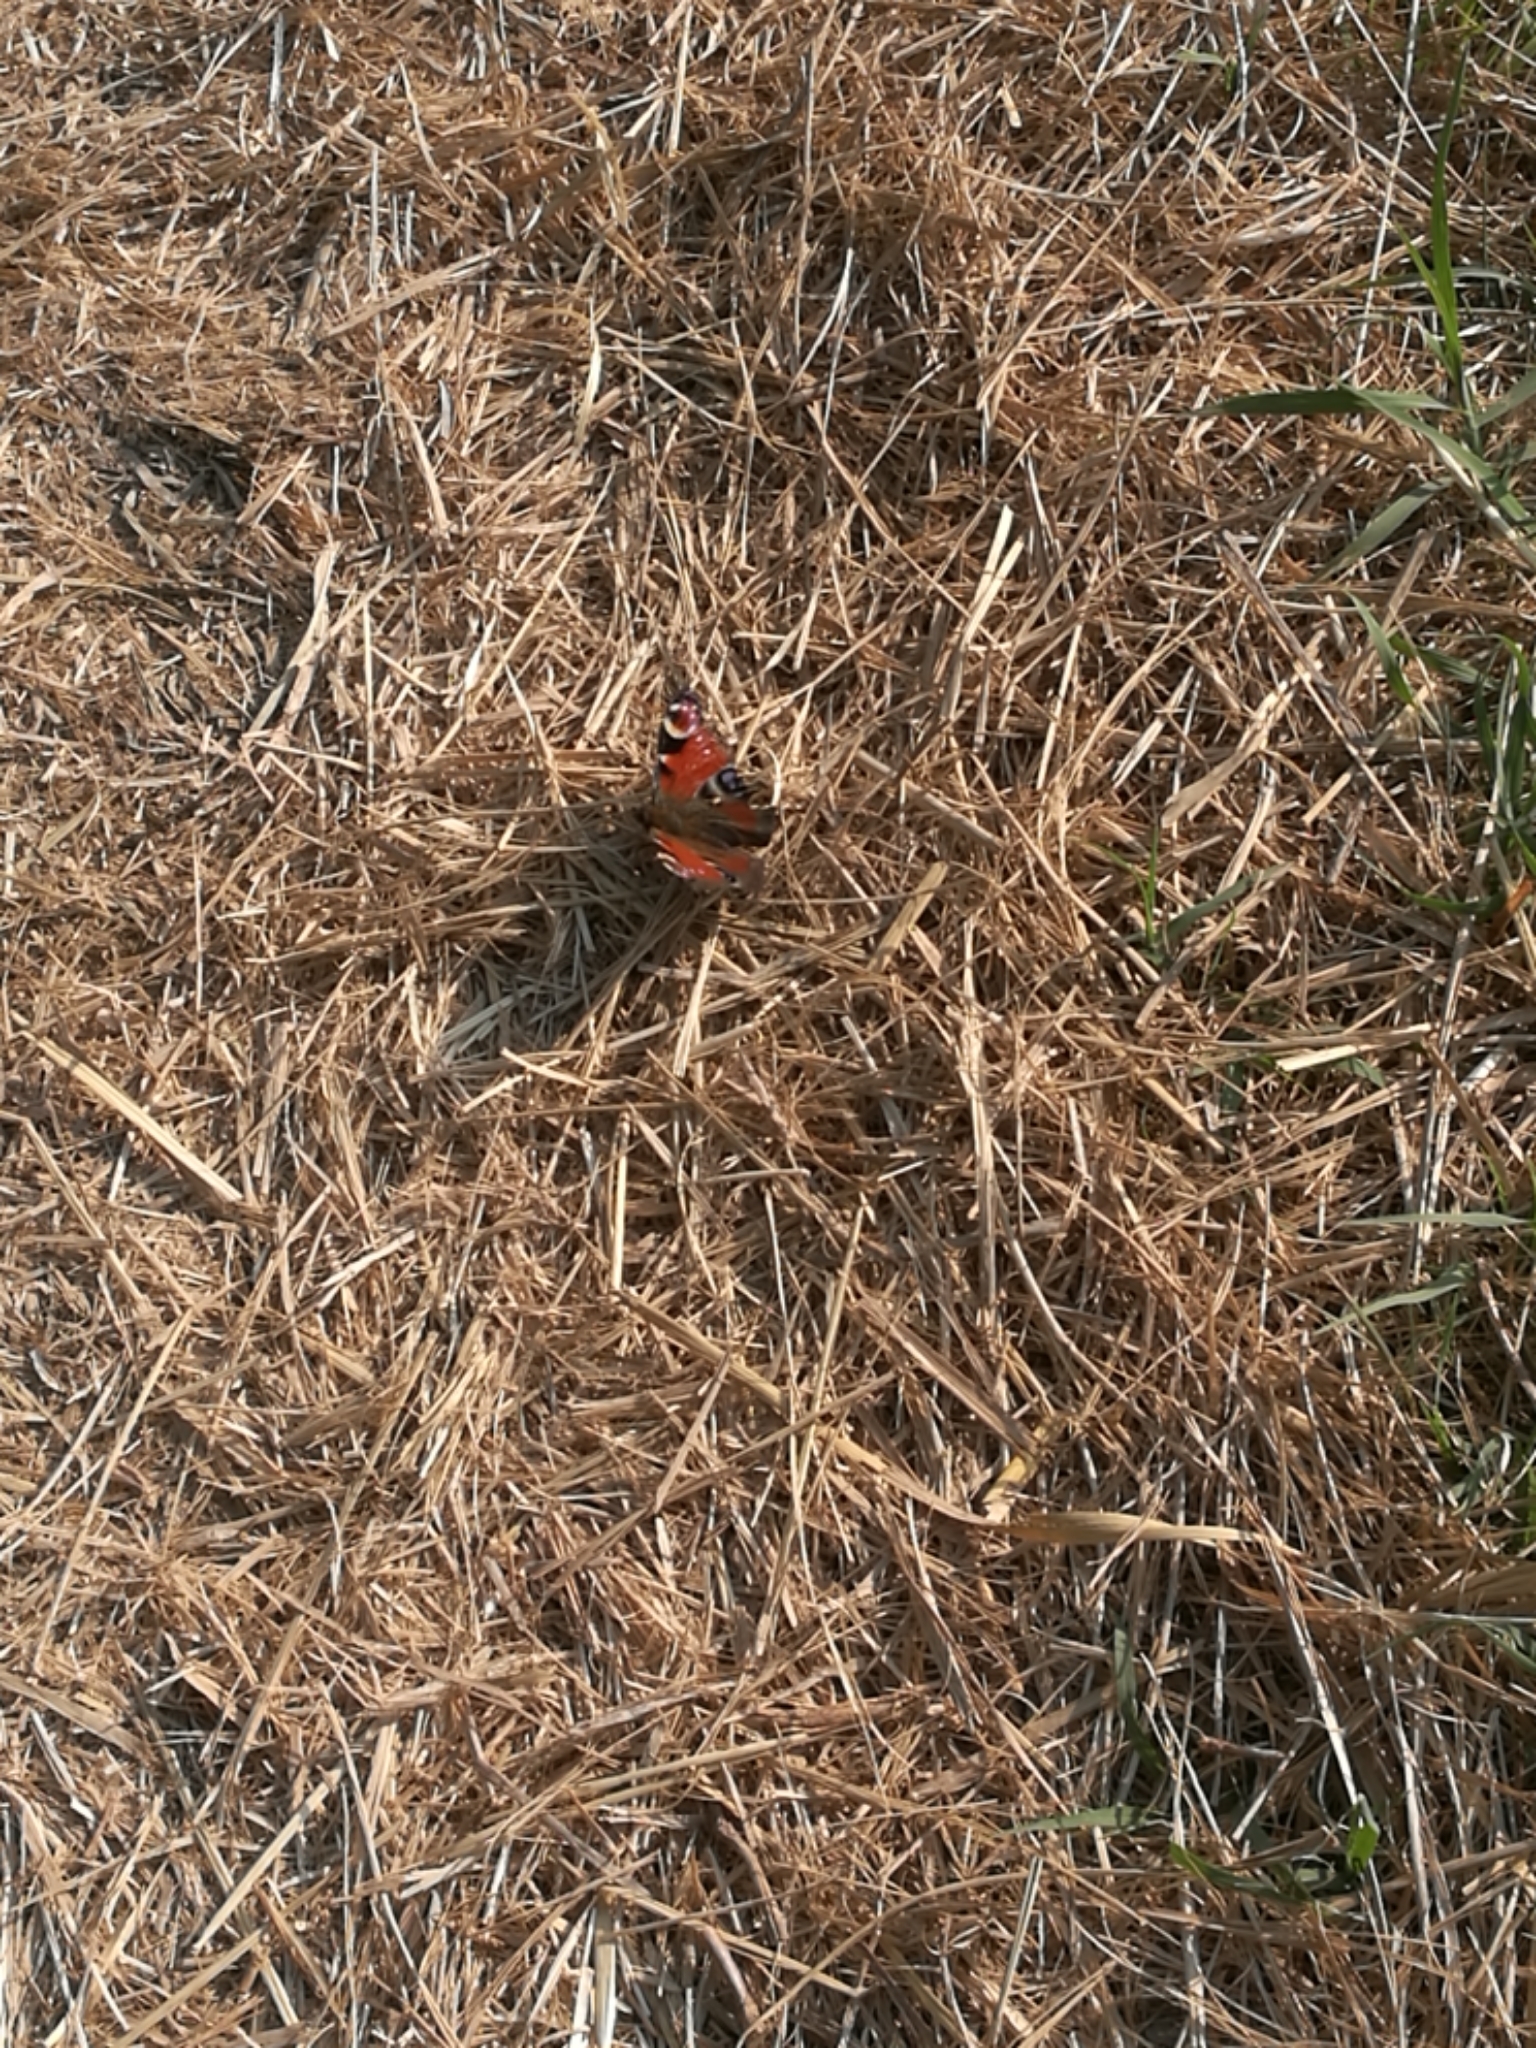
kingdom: Animalia
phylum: Arthropoda
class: Insecta
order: Lepidoptera
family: Nymphalidae
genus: Aglais
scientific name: Aglais io
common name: Peacock
